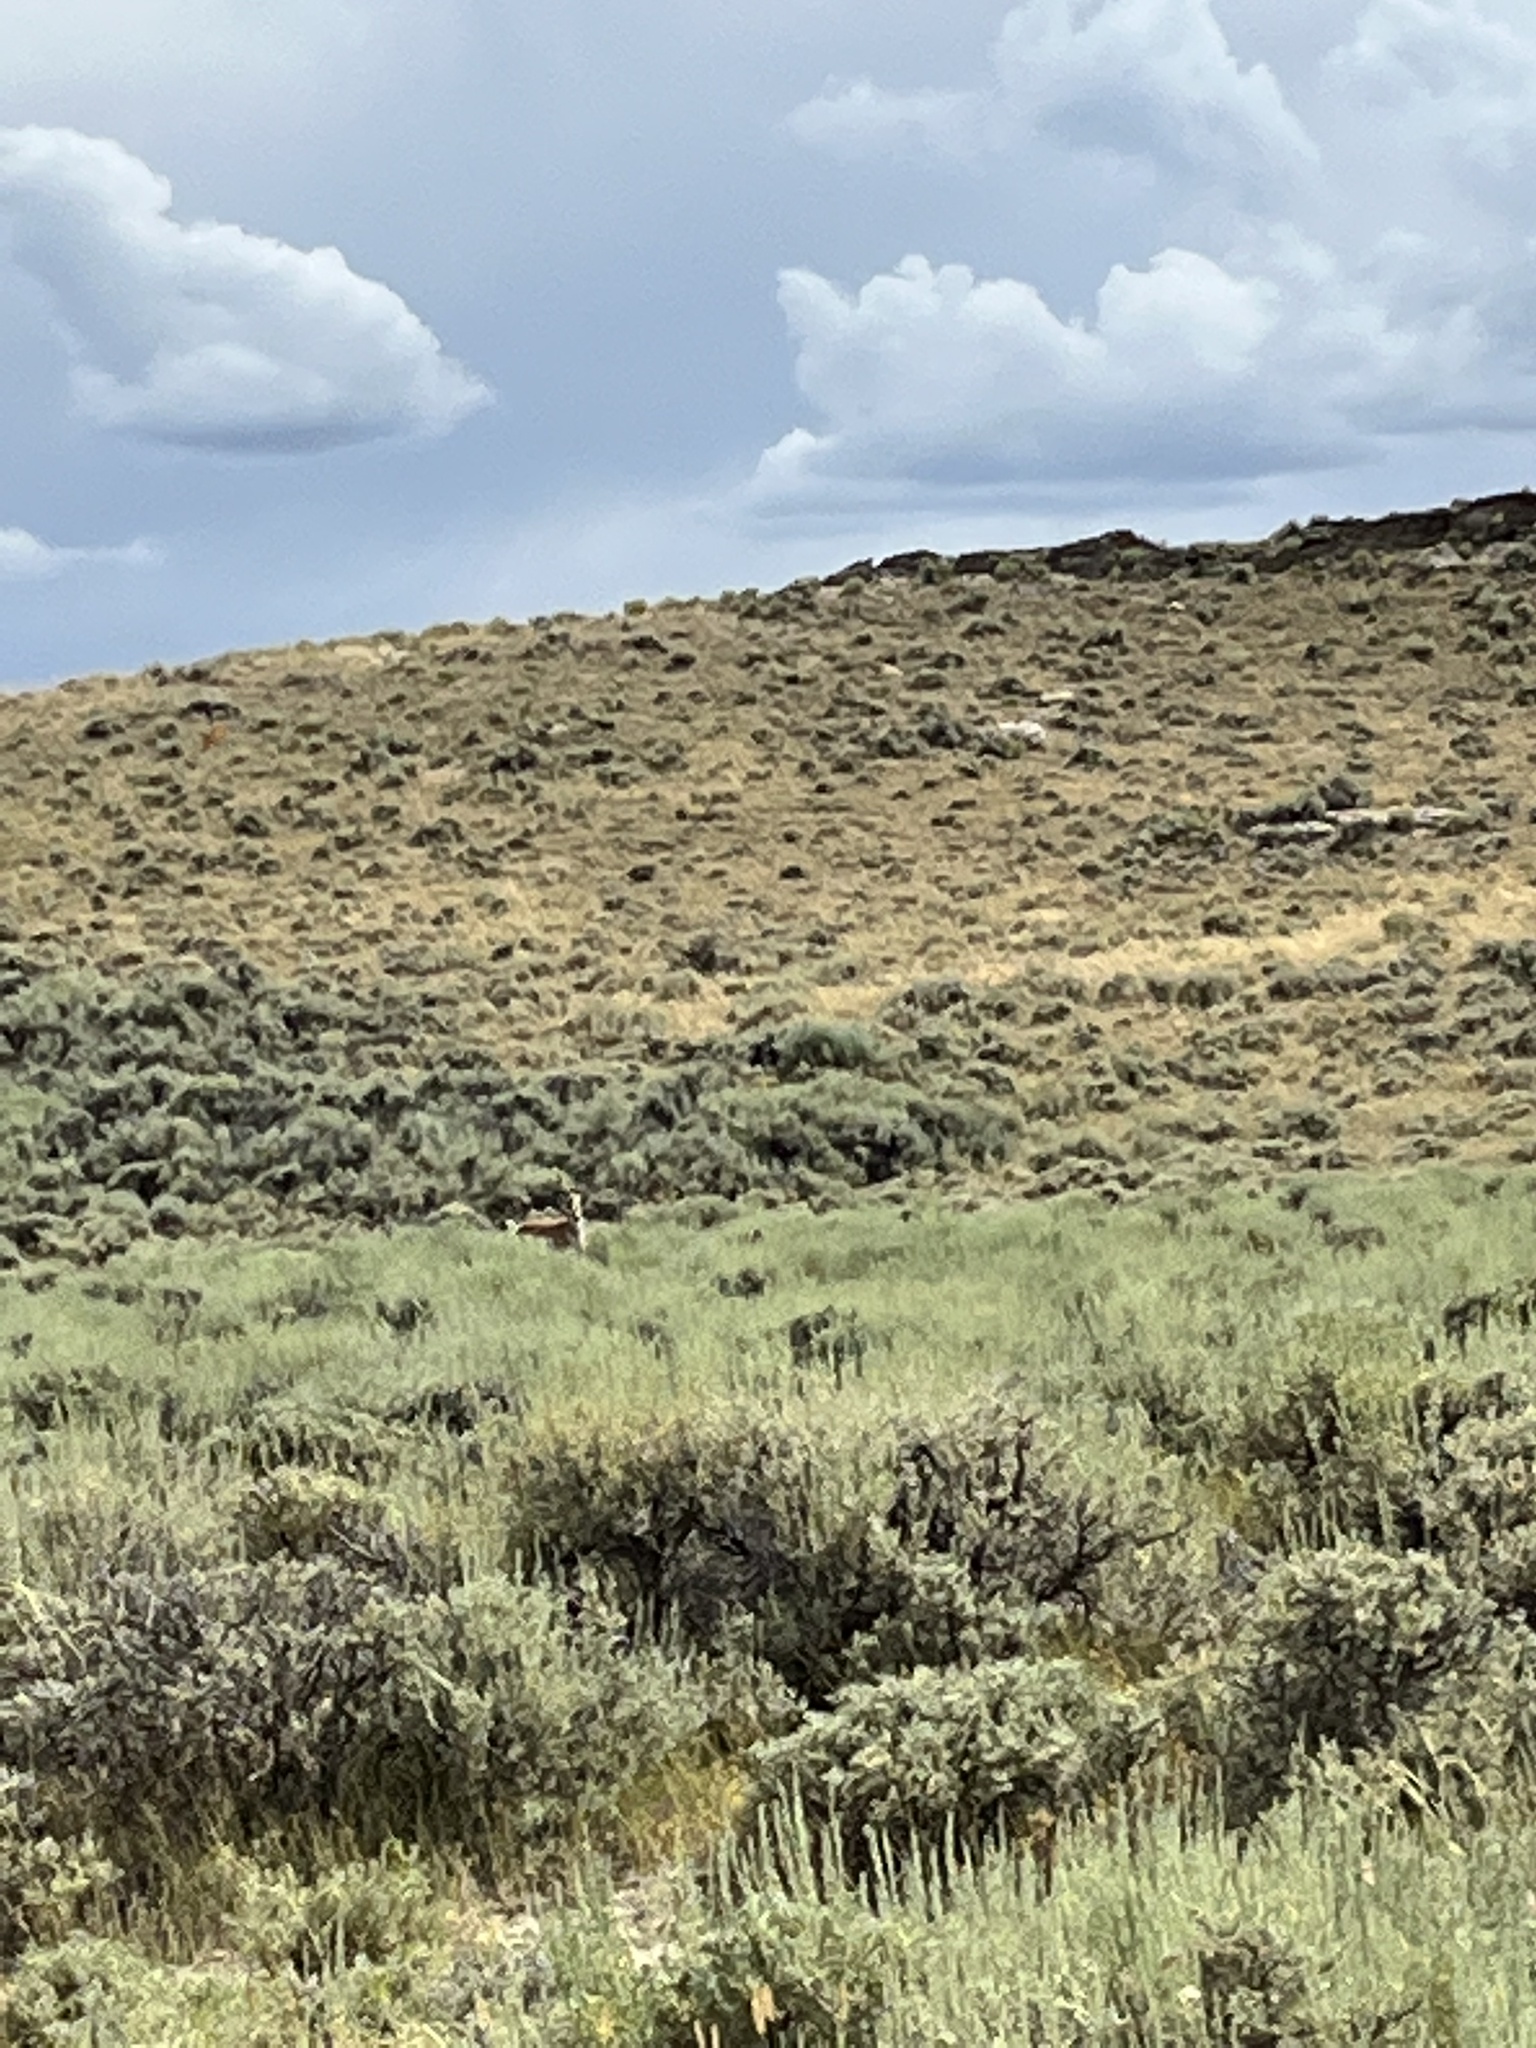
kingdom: Animalia
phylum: Chordata
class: Mammalia
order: Artiodactyla
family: Antilocapridae
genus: Antilocapra
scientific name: Antilocapra americana
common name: Pronghorn
